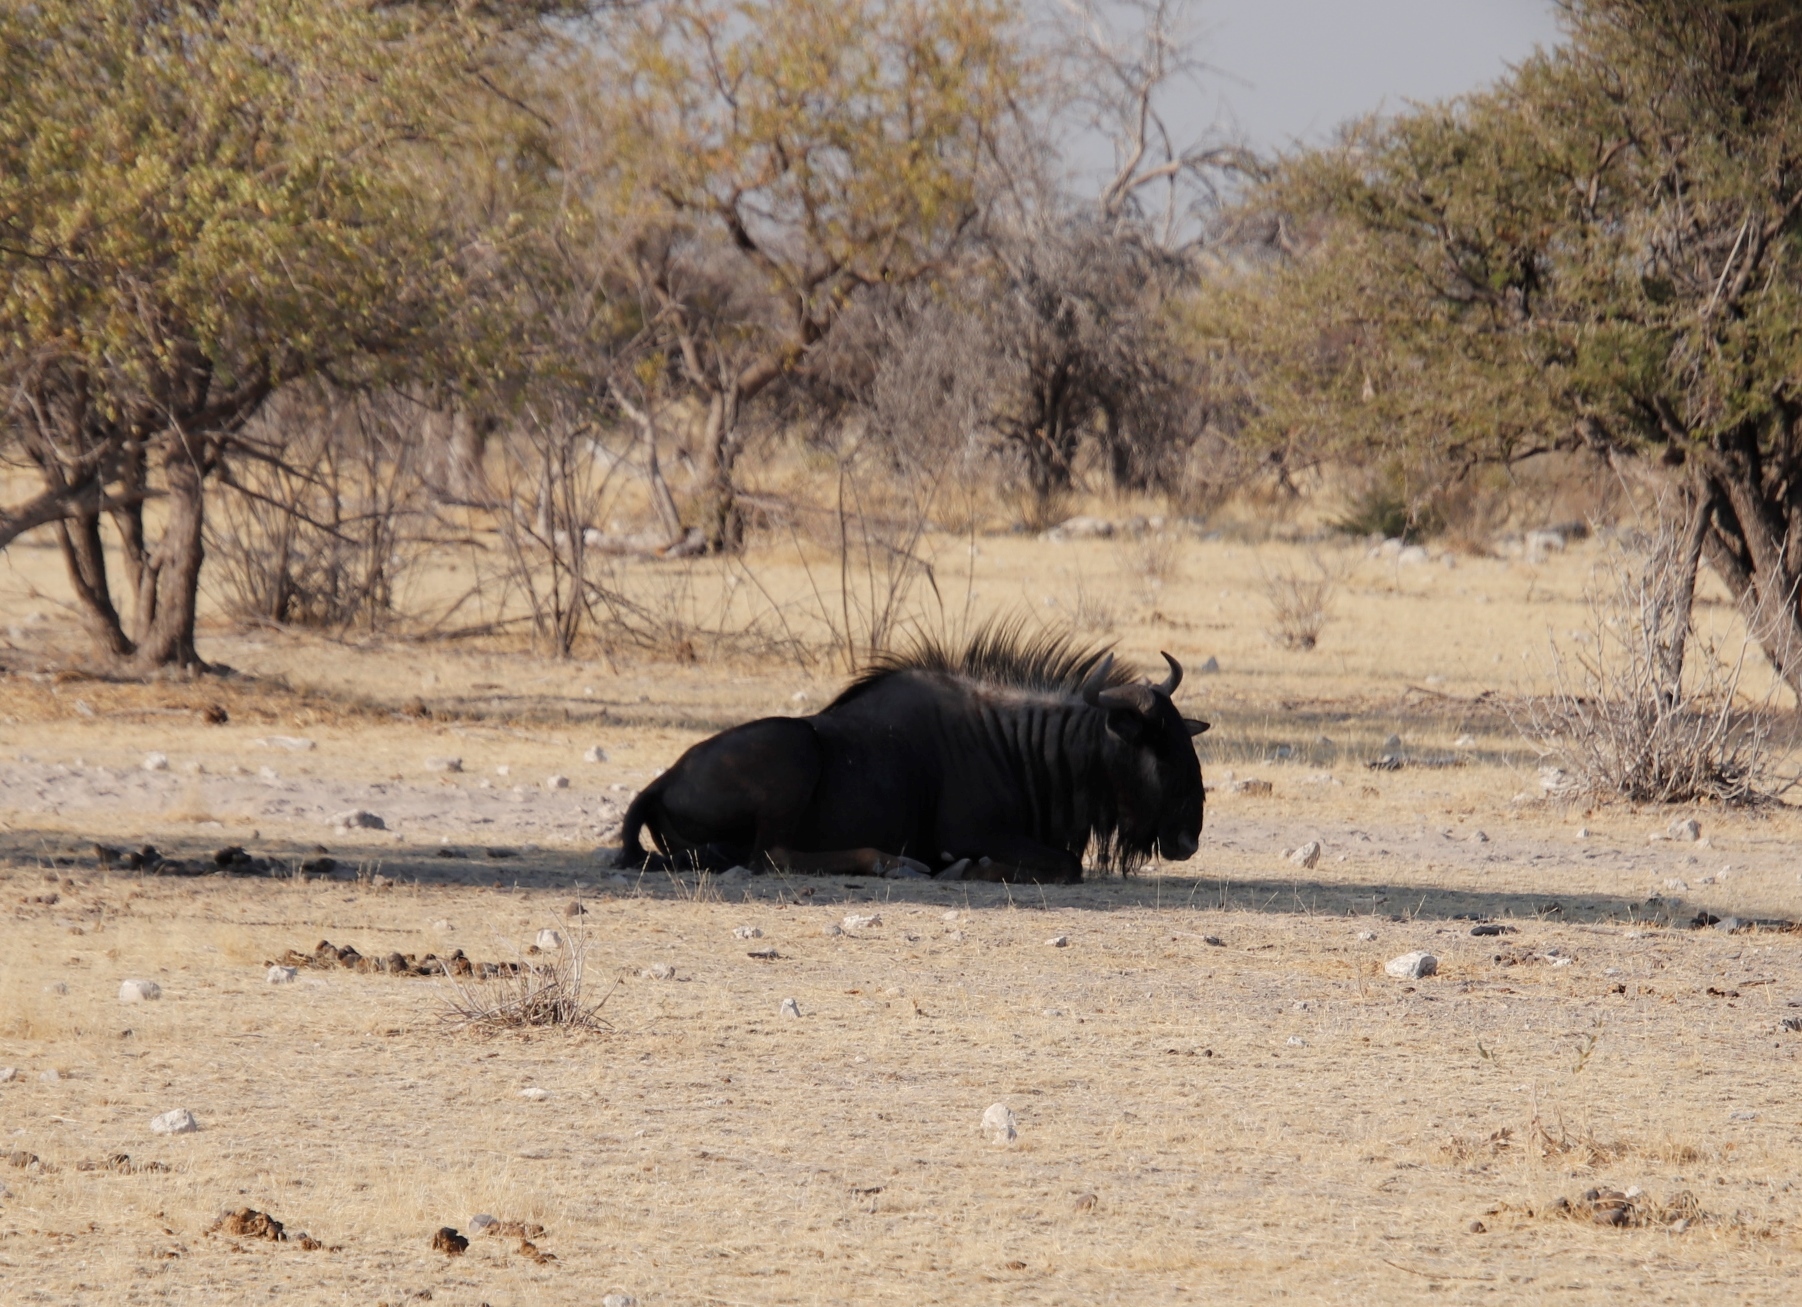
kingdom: Animalia
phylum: Chordata
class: Mammalia
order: Artiodactyla
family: Bovidae
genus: Connochaetes
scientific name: Connochaetes taurinus
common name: Blue wildebeest
